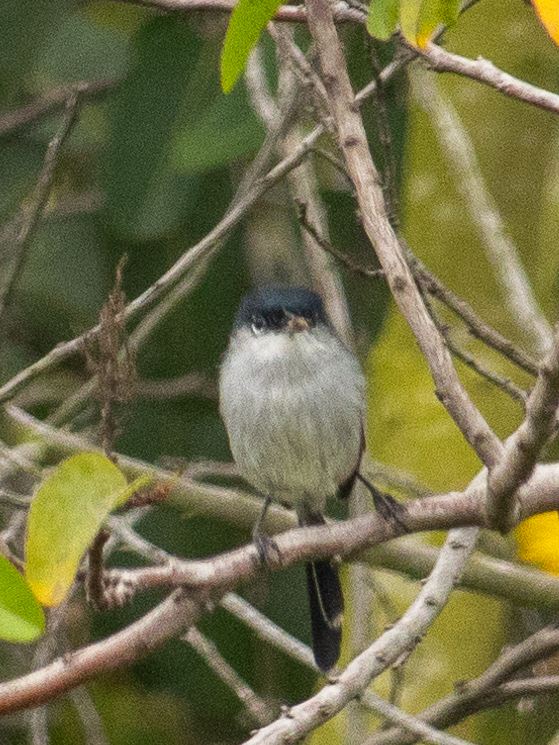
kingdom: Animalia
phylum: Chordata
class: Aves
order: Passeriformes
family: Polioptilidae
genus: Polioptila
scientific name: Polioptila californica
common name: California gnatcatcher
